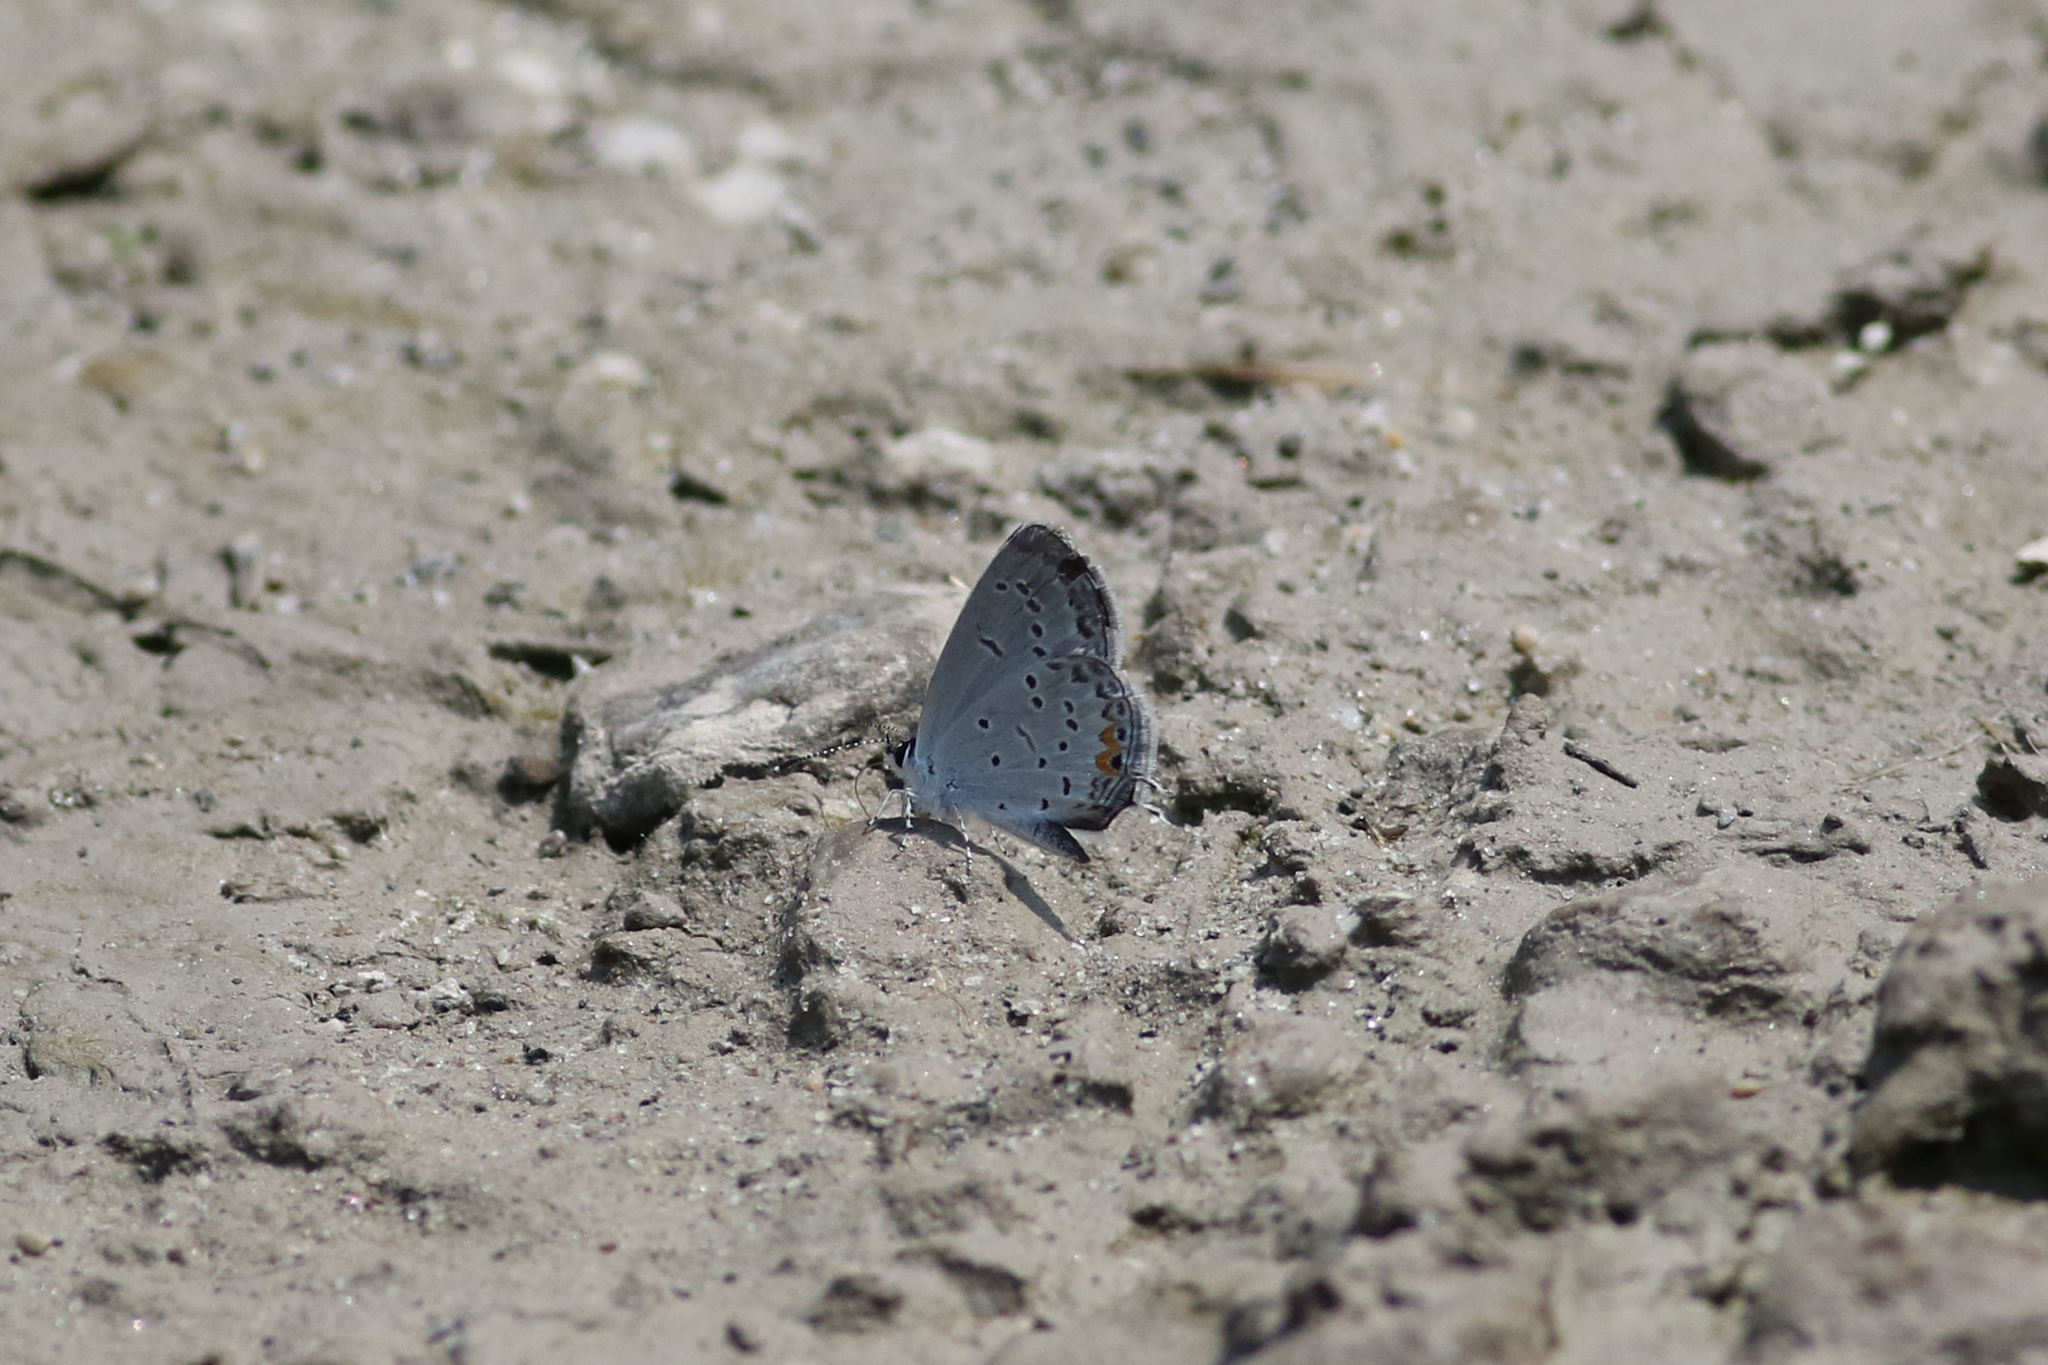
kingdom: Animalia
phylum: Arthropoda
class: Insecta
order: Lepidoptera
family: Lycaenidae
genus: Elkalyce
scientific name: Elkalyce comyntas
